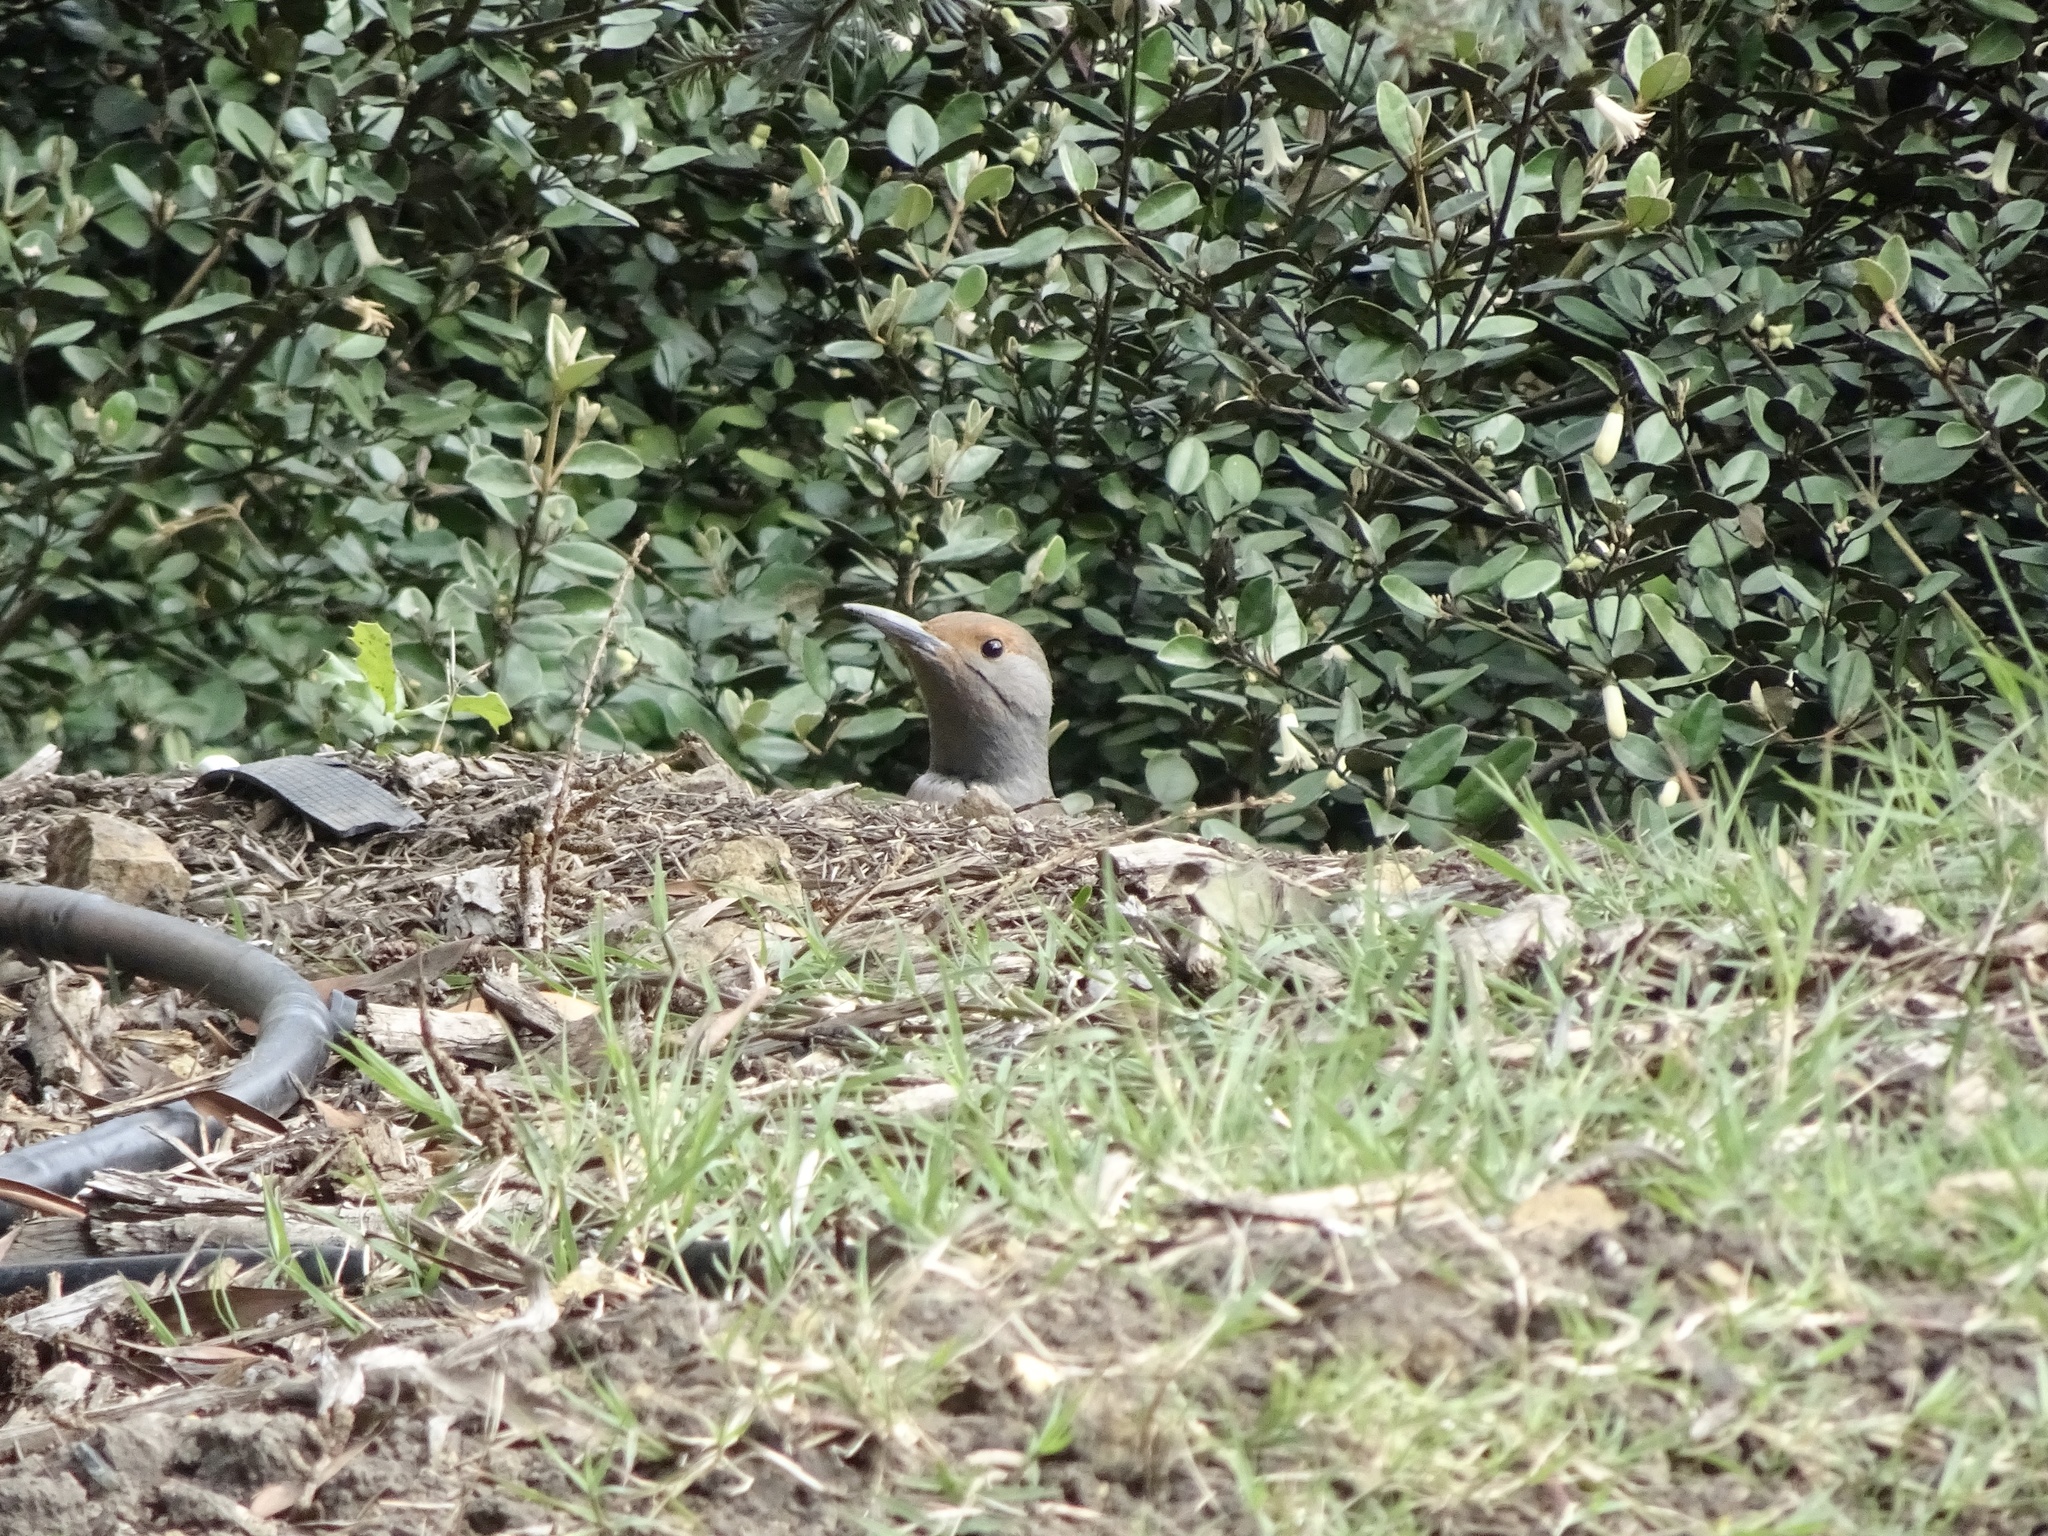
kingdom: Animalia
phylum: Chordata
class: Aves
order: Piciformes
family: Picidae
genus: Colaptes
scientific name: Colaptes auratus
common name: Northern flicker
